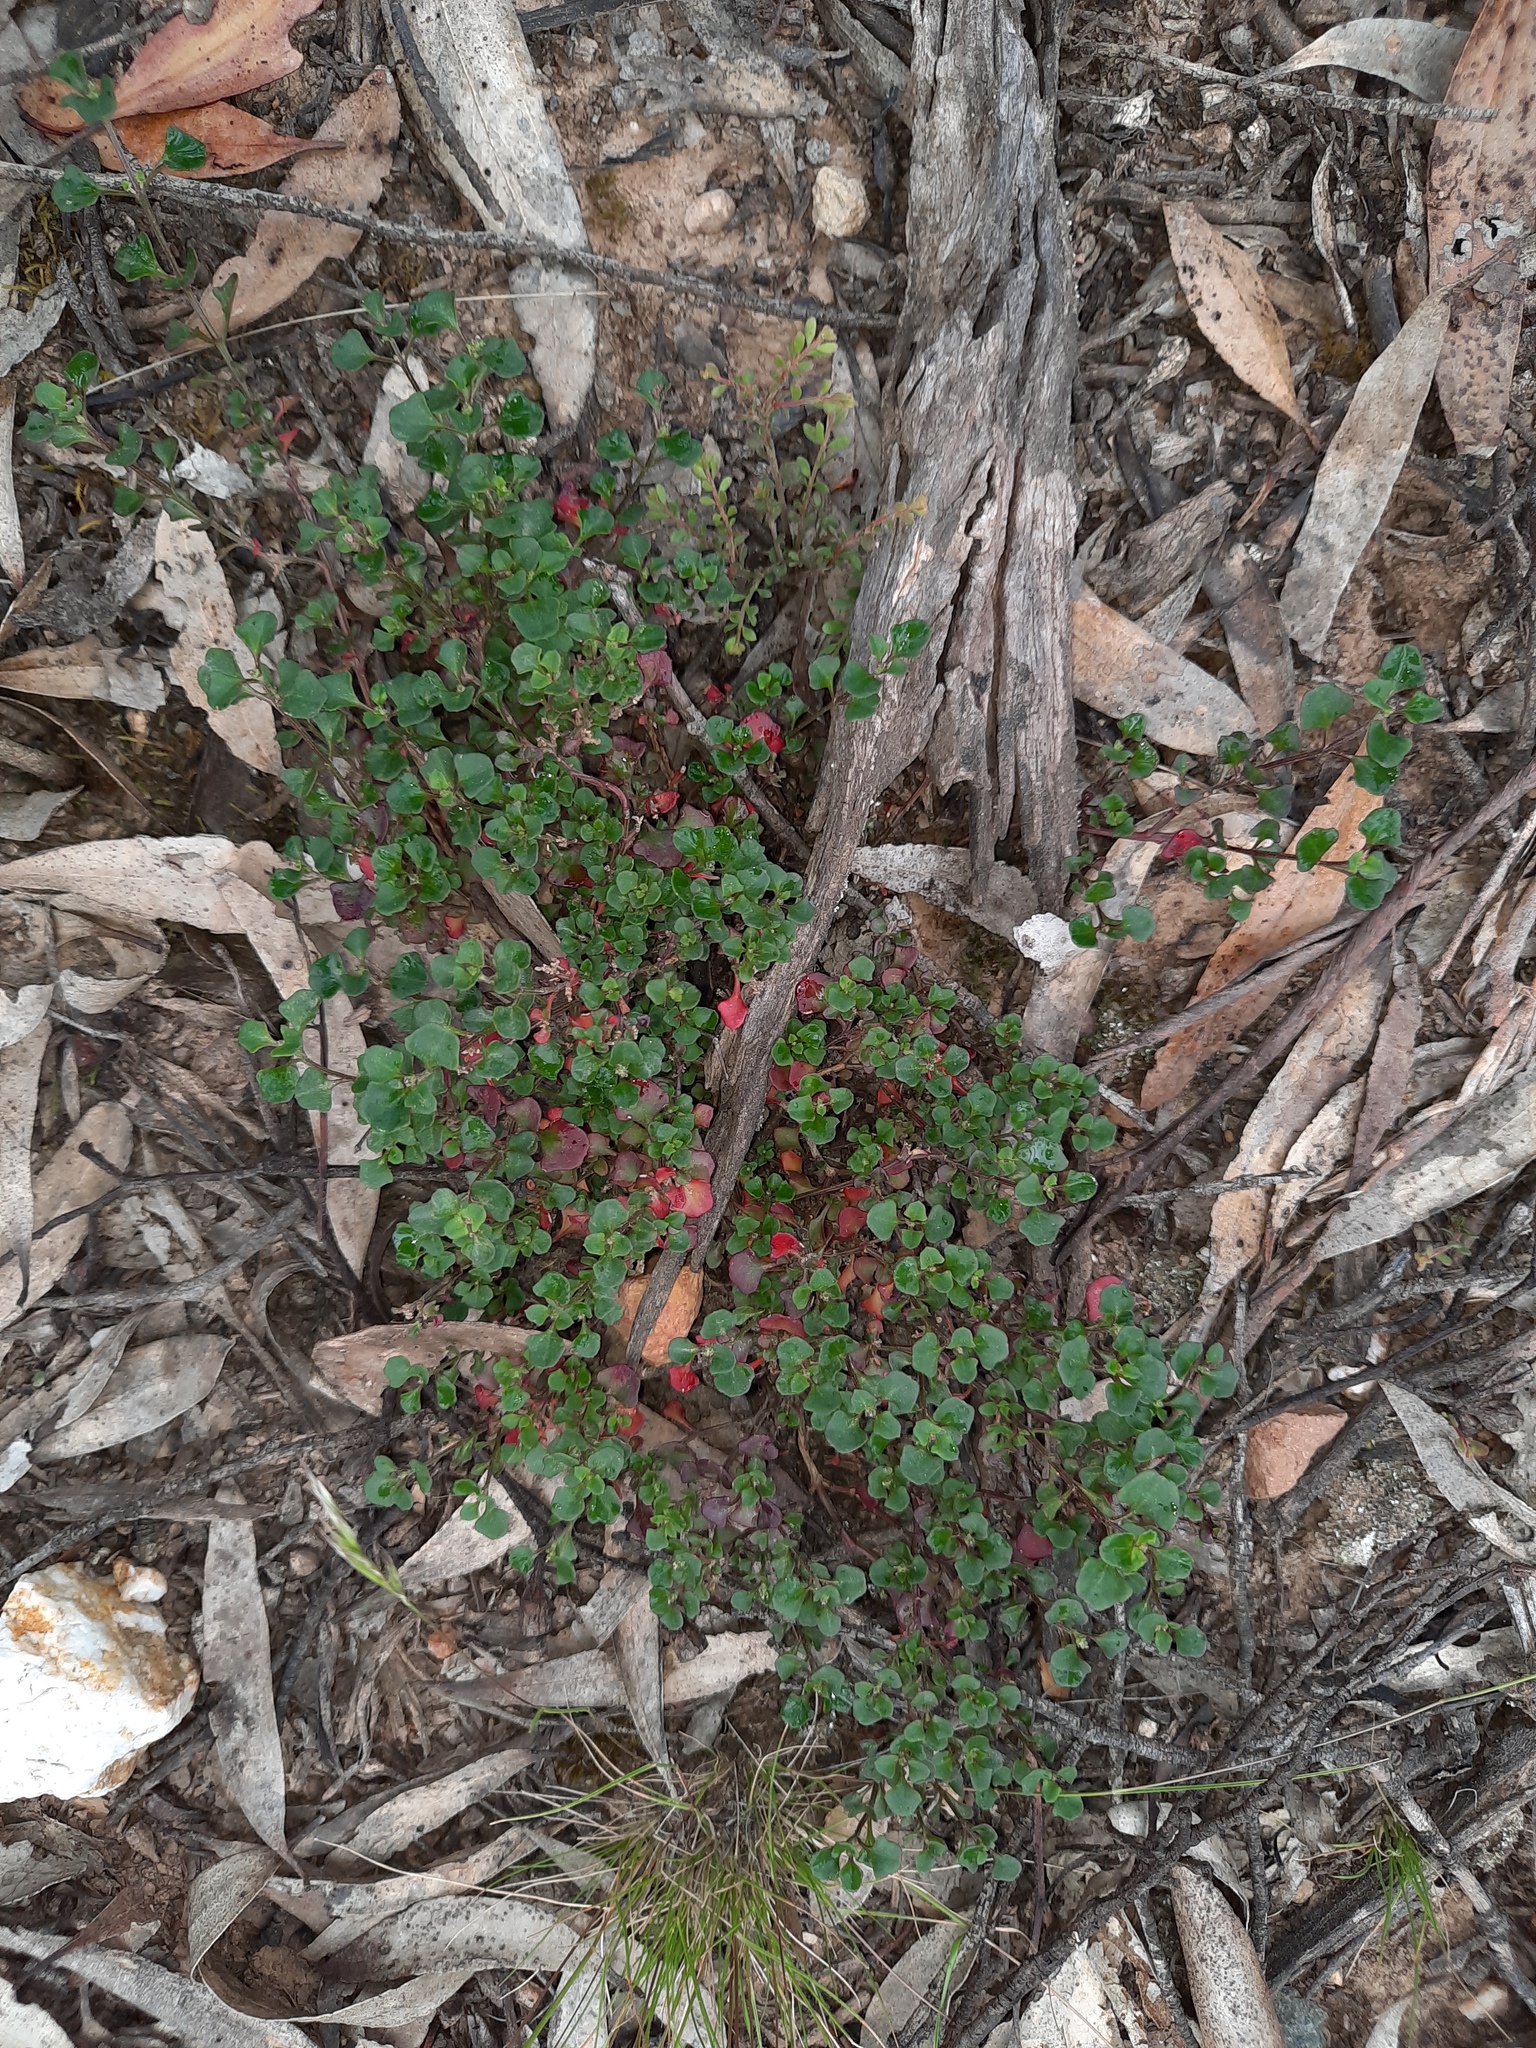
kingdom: Plantae
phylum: Tracheophyta
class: Magnoliopsida
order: Caryophyllales
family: Amaranthaceae
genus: Chenopodium
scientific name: Chenopodium robertianum
